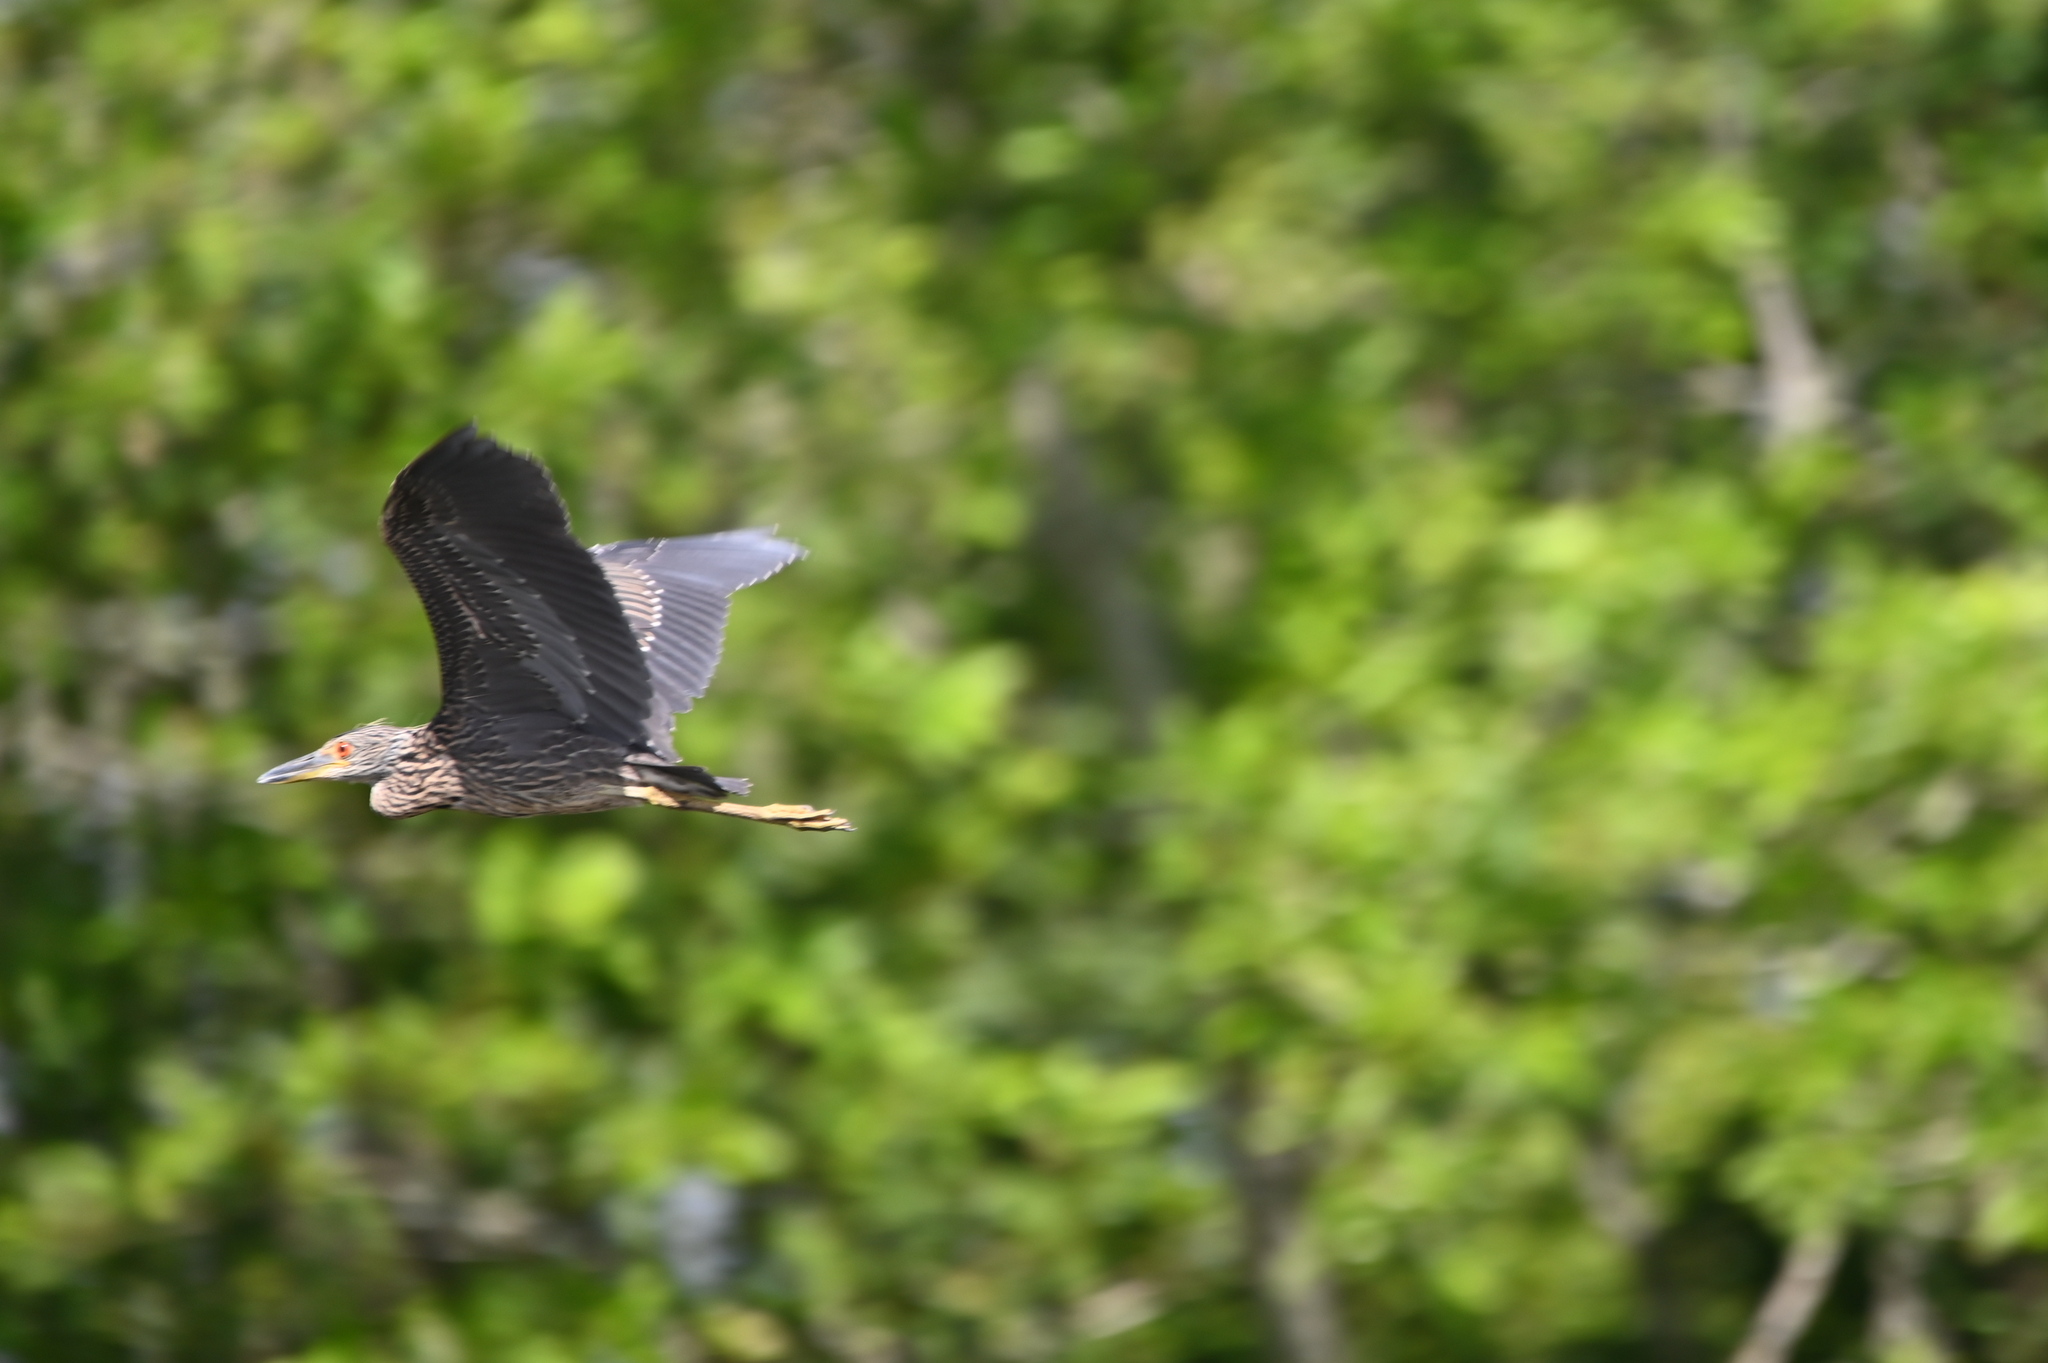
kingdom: Animalia
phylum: Chordata
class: Aves
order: Pelecaniformes
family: Ardeidae
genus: Nyctanassa
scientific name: Nyctanassa violacea
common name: Yellow-crowned night heron
